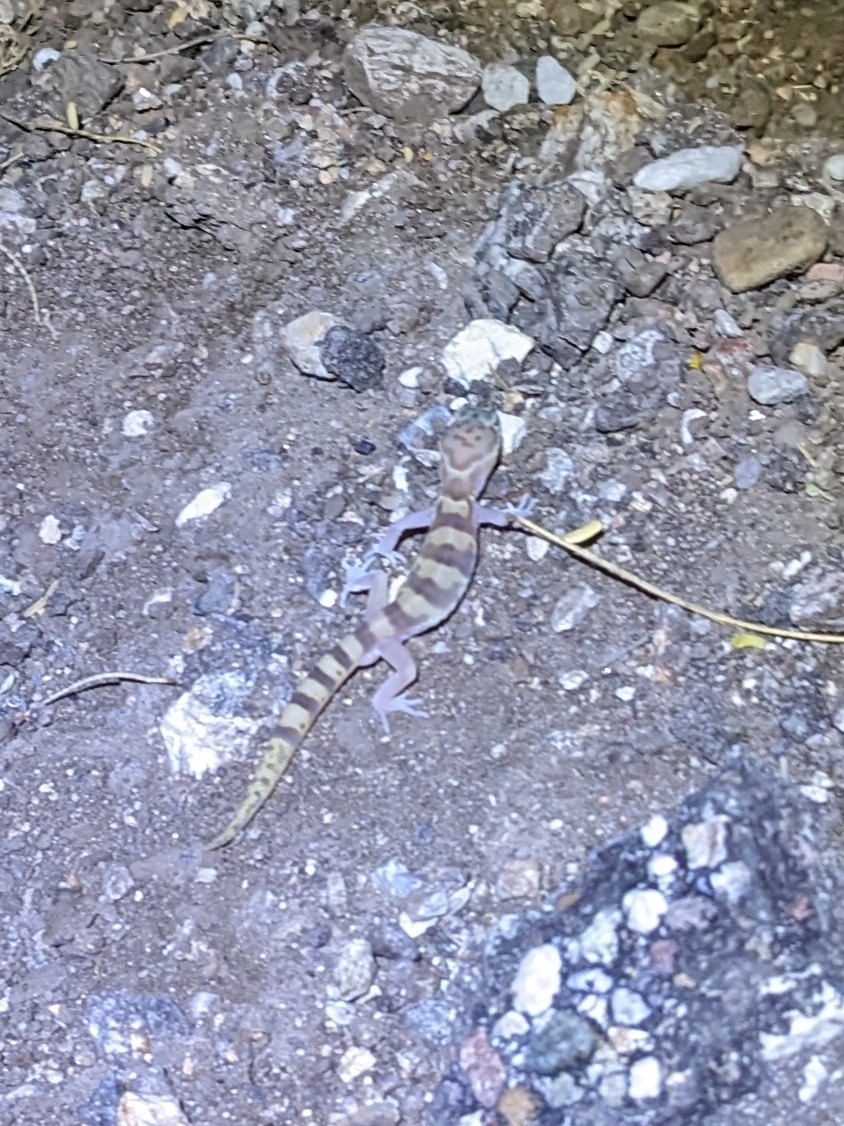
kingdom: Animalia
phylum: Chordata
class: Squamata
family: Eublepharidae
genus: Coleonyx
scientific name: Coleonyx variegatus
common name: Western banded gecko
